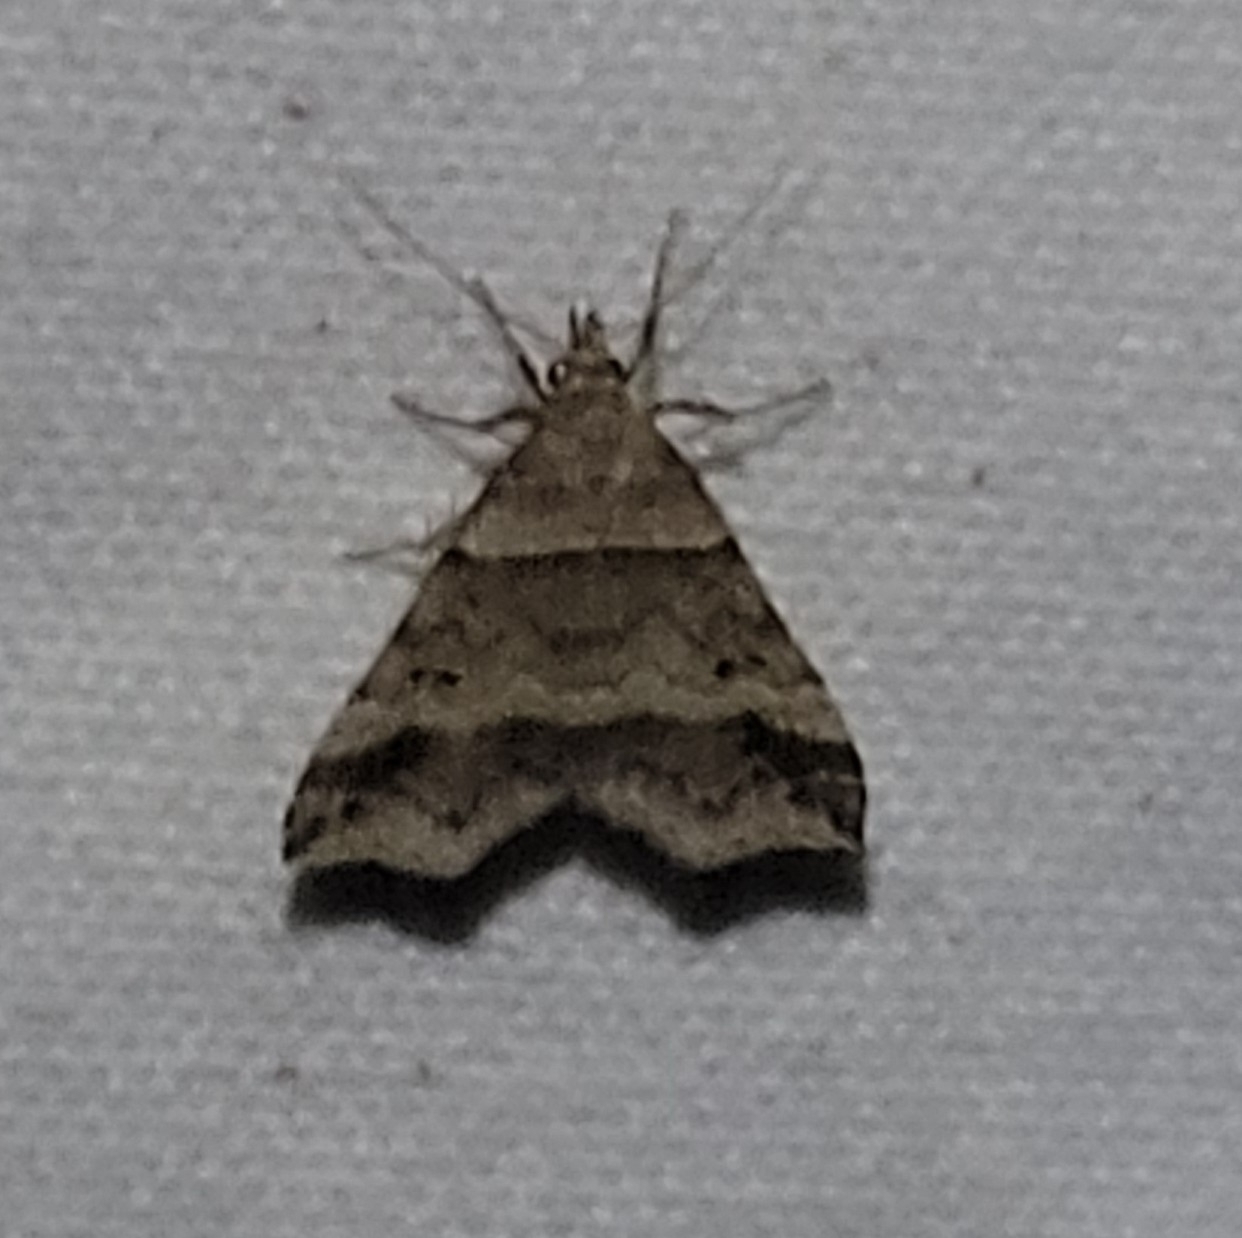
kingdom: Animalia
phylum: Arthropoda
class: Insecta
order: Lepidoptera
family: Erebidae
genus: Phaeolita
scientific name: Phaeolita pyramusalis
